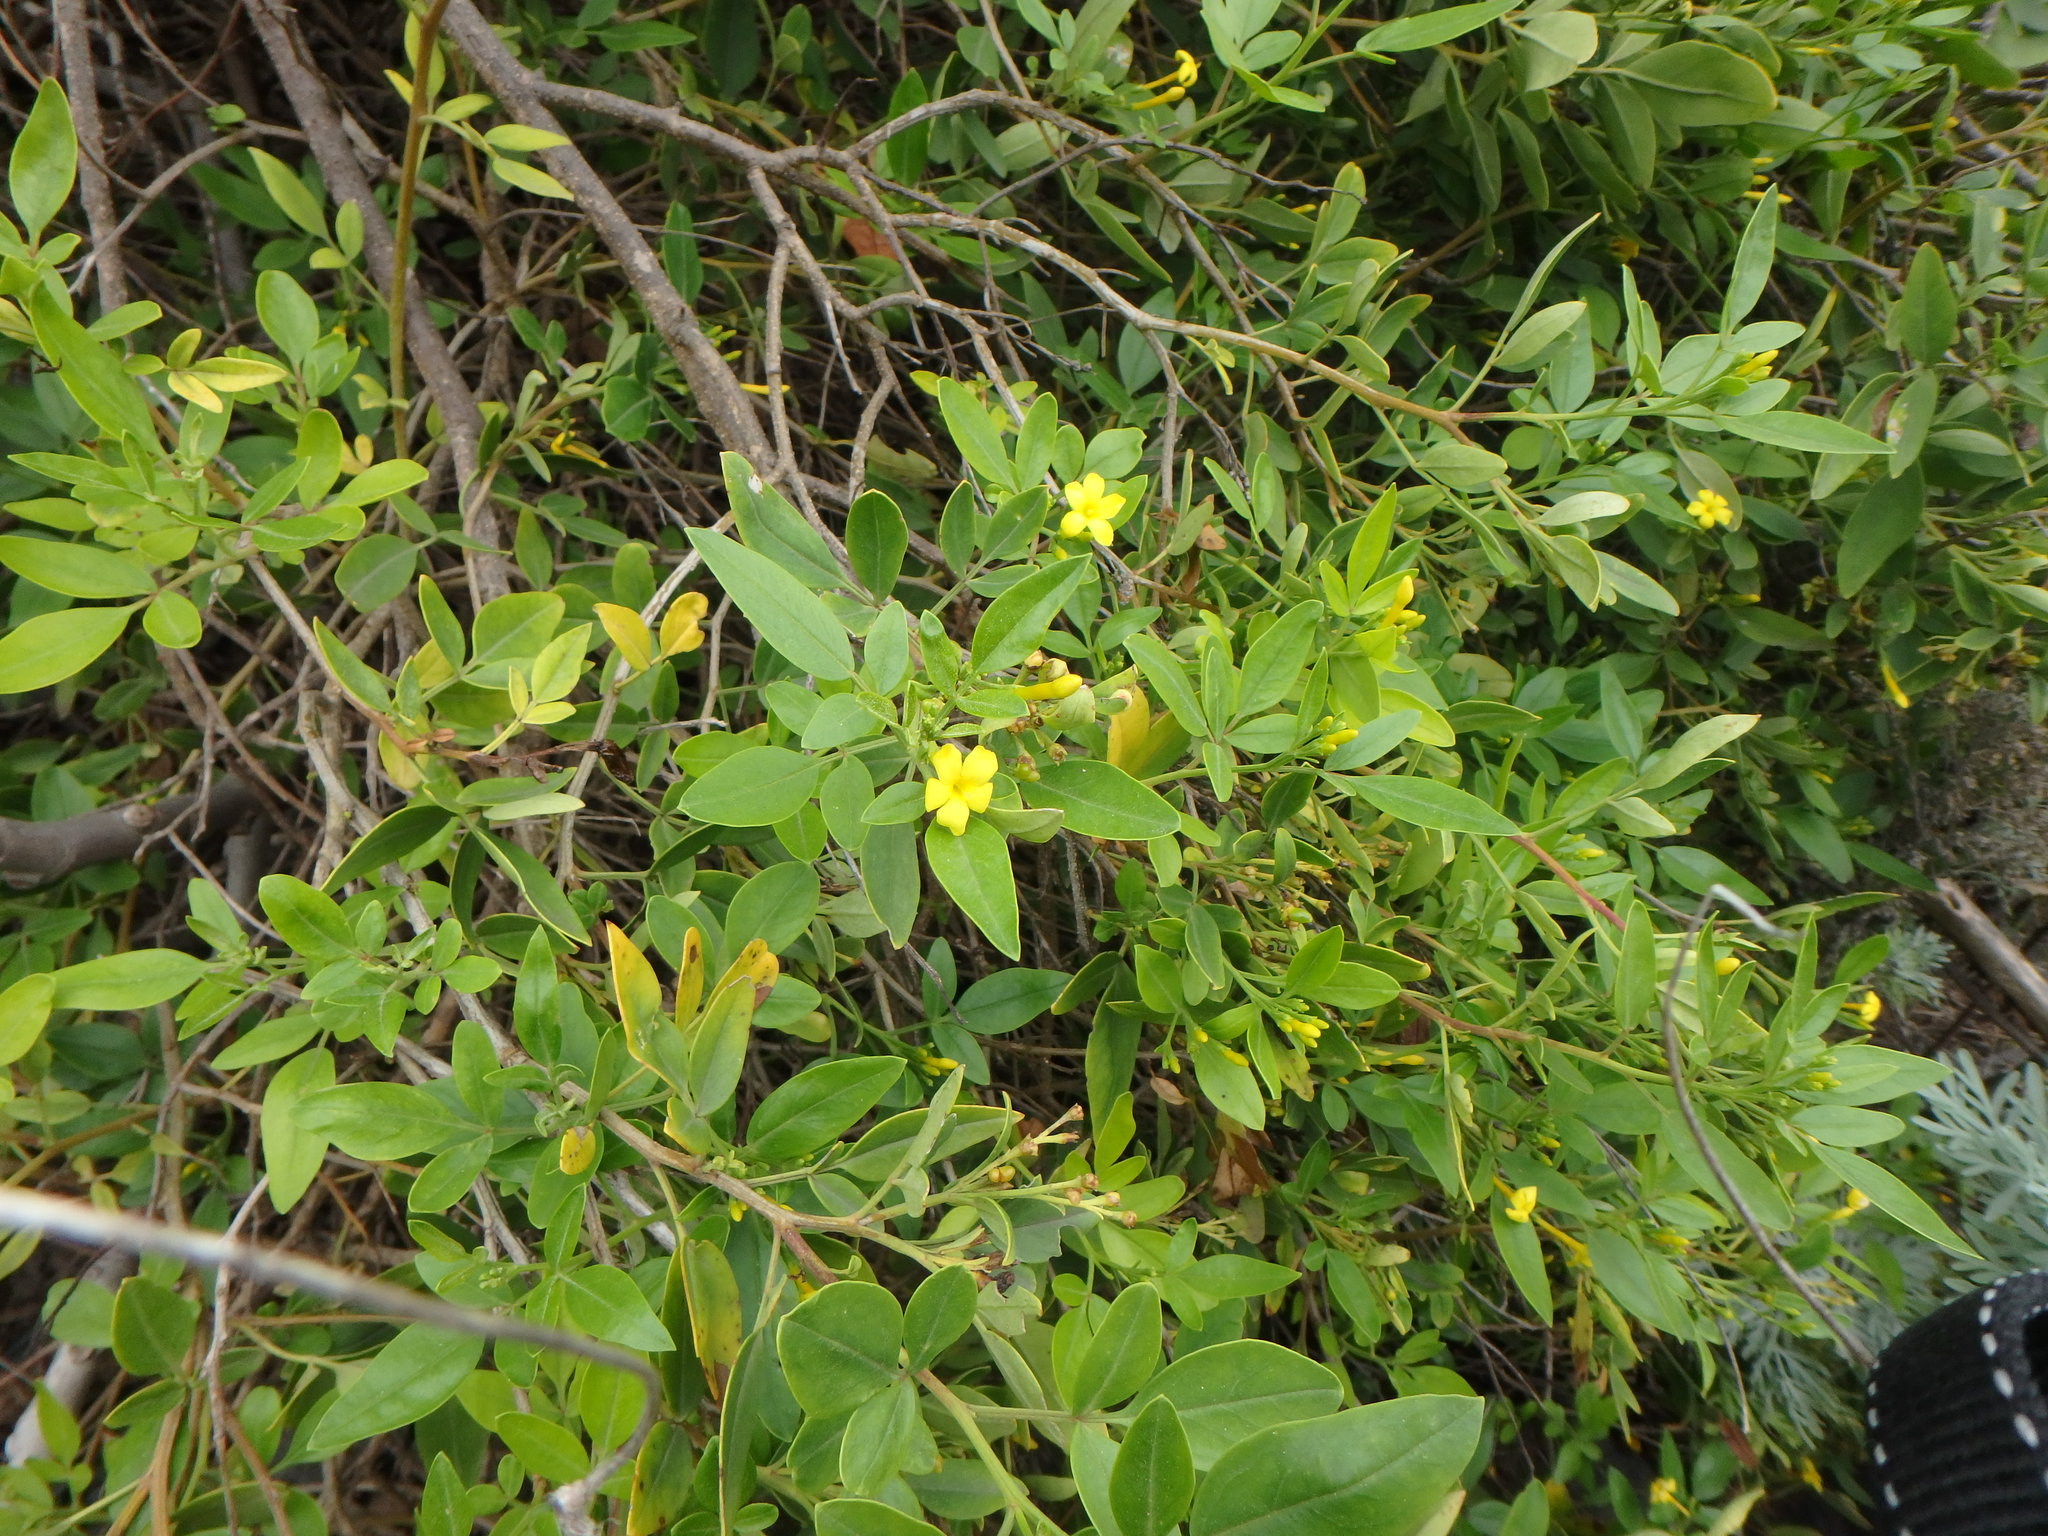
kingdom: Plantae
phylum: Tracheophyta
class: Magnoliopsida
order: Lamiales
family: Oleaceae
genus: Chrysojasminum
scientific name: Chrysojasminum odoratissimum
